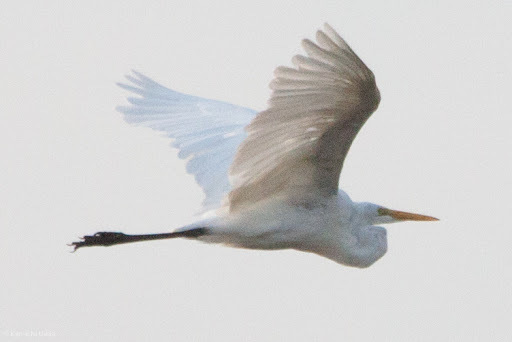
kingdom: Animalia
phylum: Chordata
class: Aves
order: Pelecaniformes
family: Ardeidae
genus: Ardea
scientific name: Ardea alba
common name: Great egret
